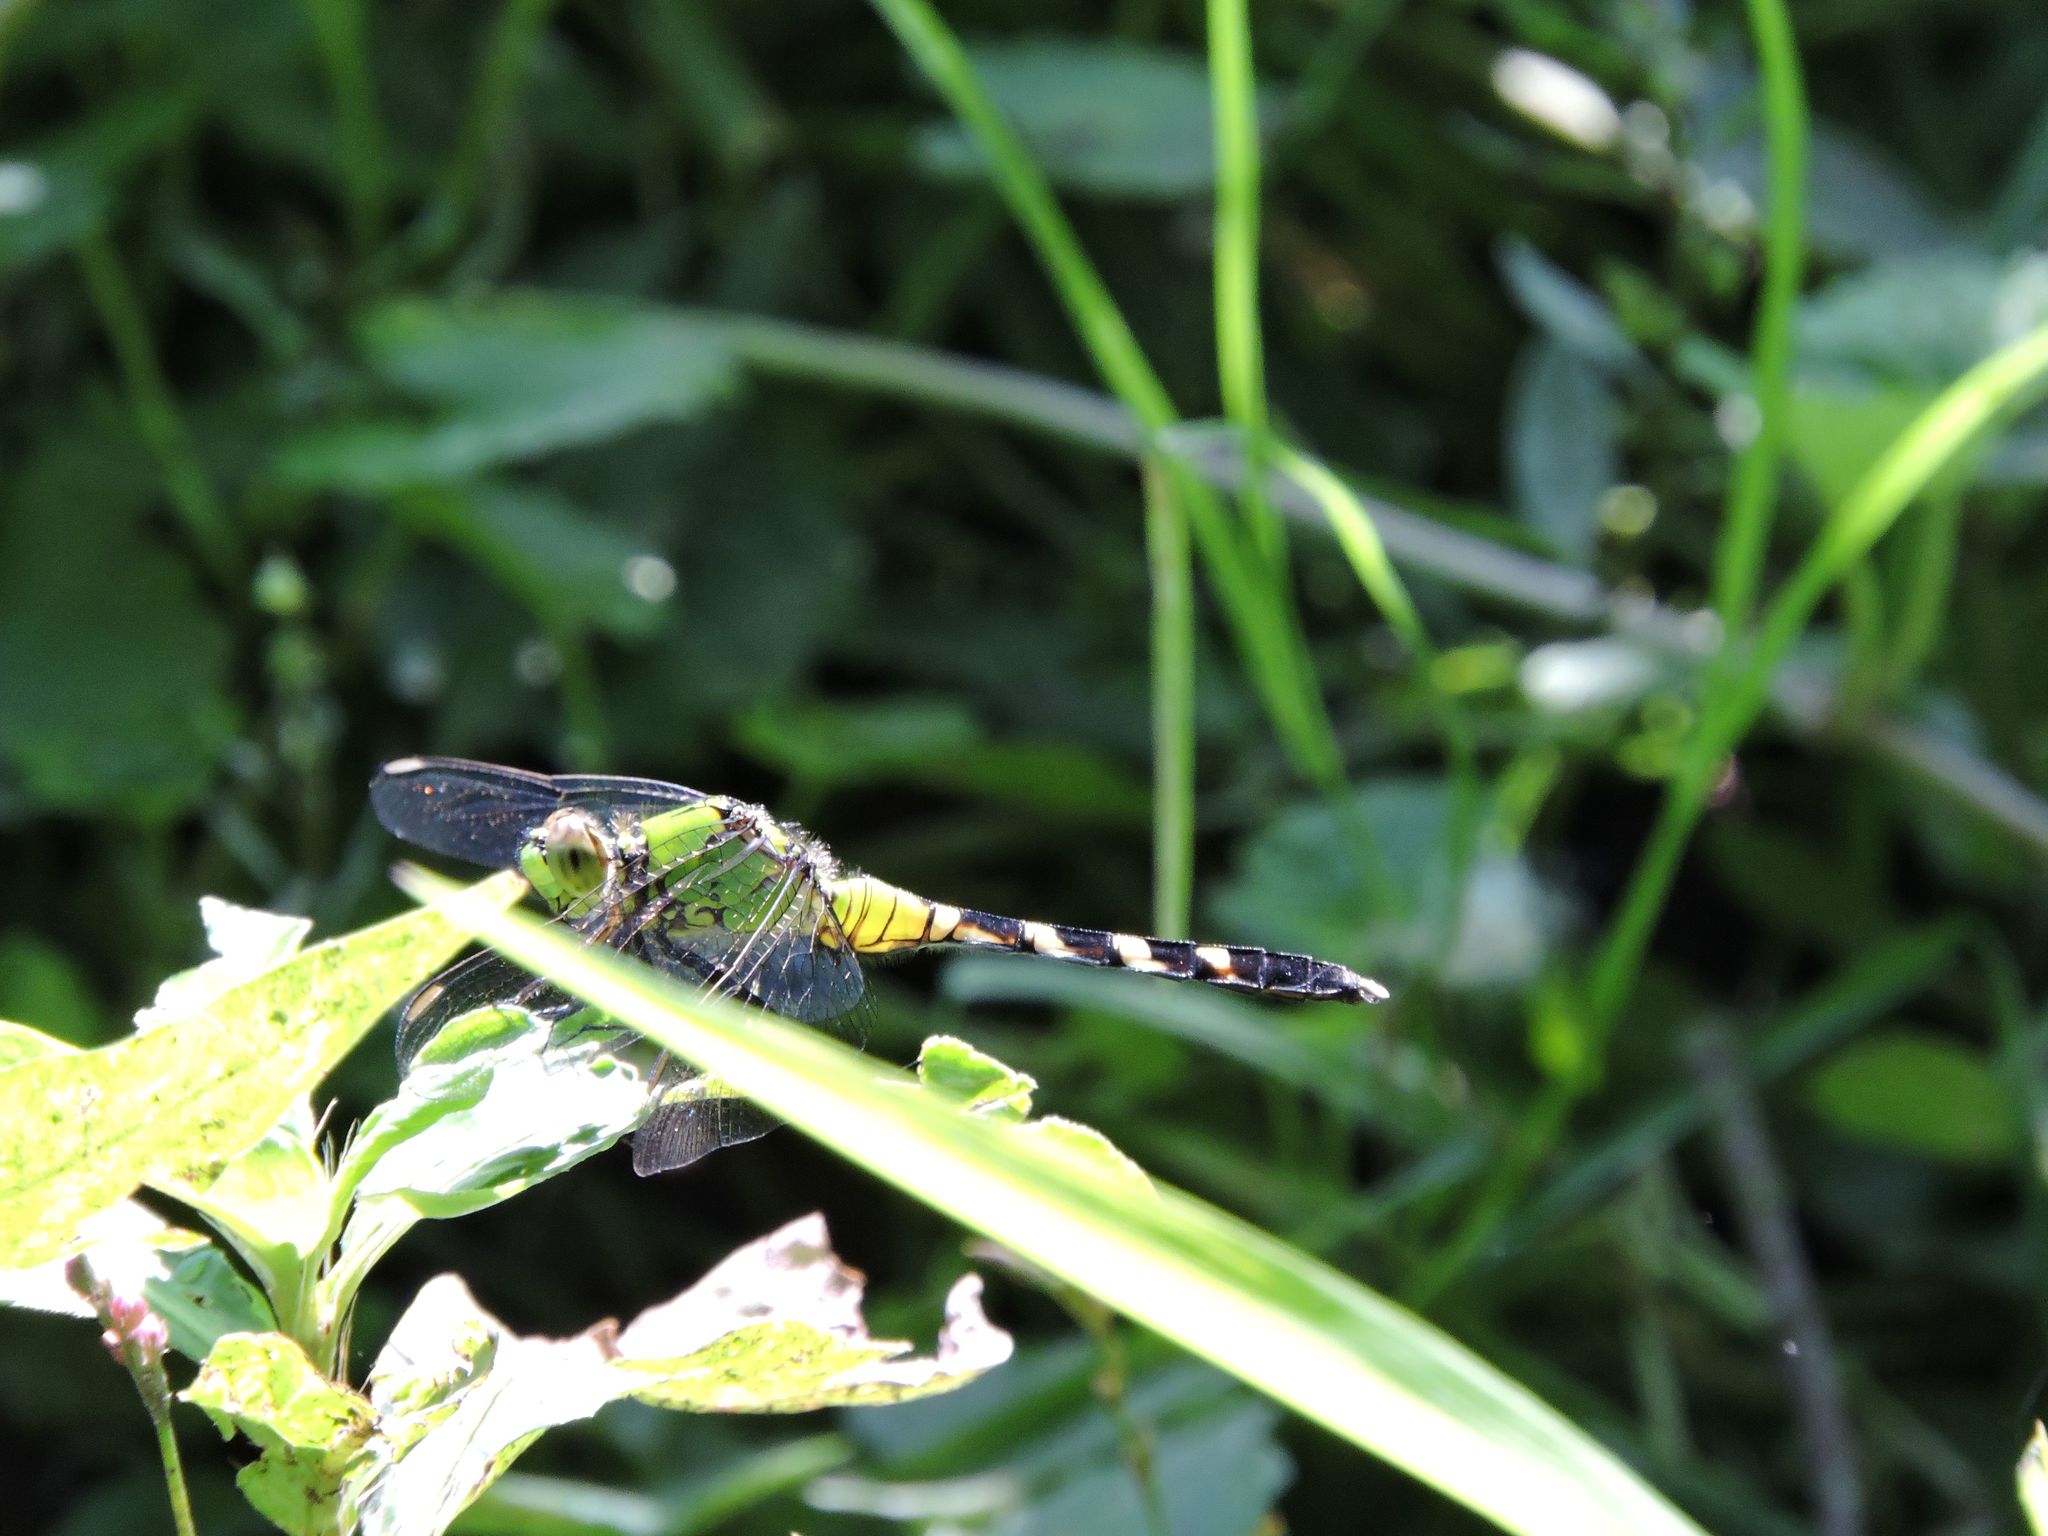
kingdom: Animalia
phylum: Arthropoda
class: Insecta
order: Odonata
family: Libellulidae
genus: Erythemis
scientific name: Erythemis simplicicollis
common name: Eastern pondhawk
